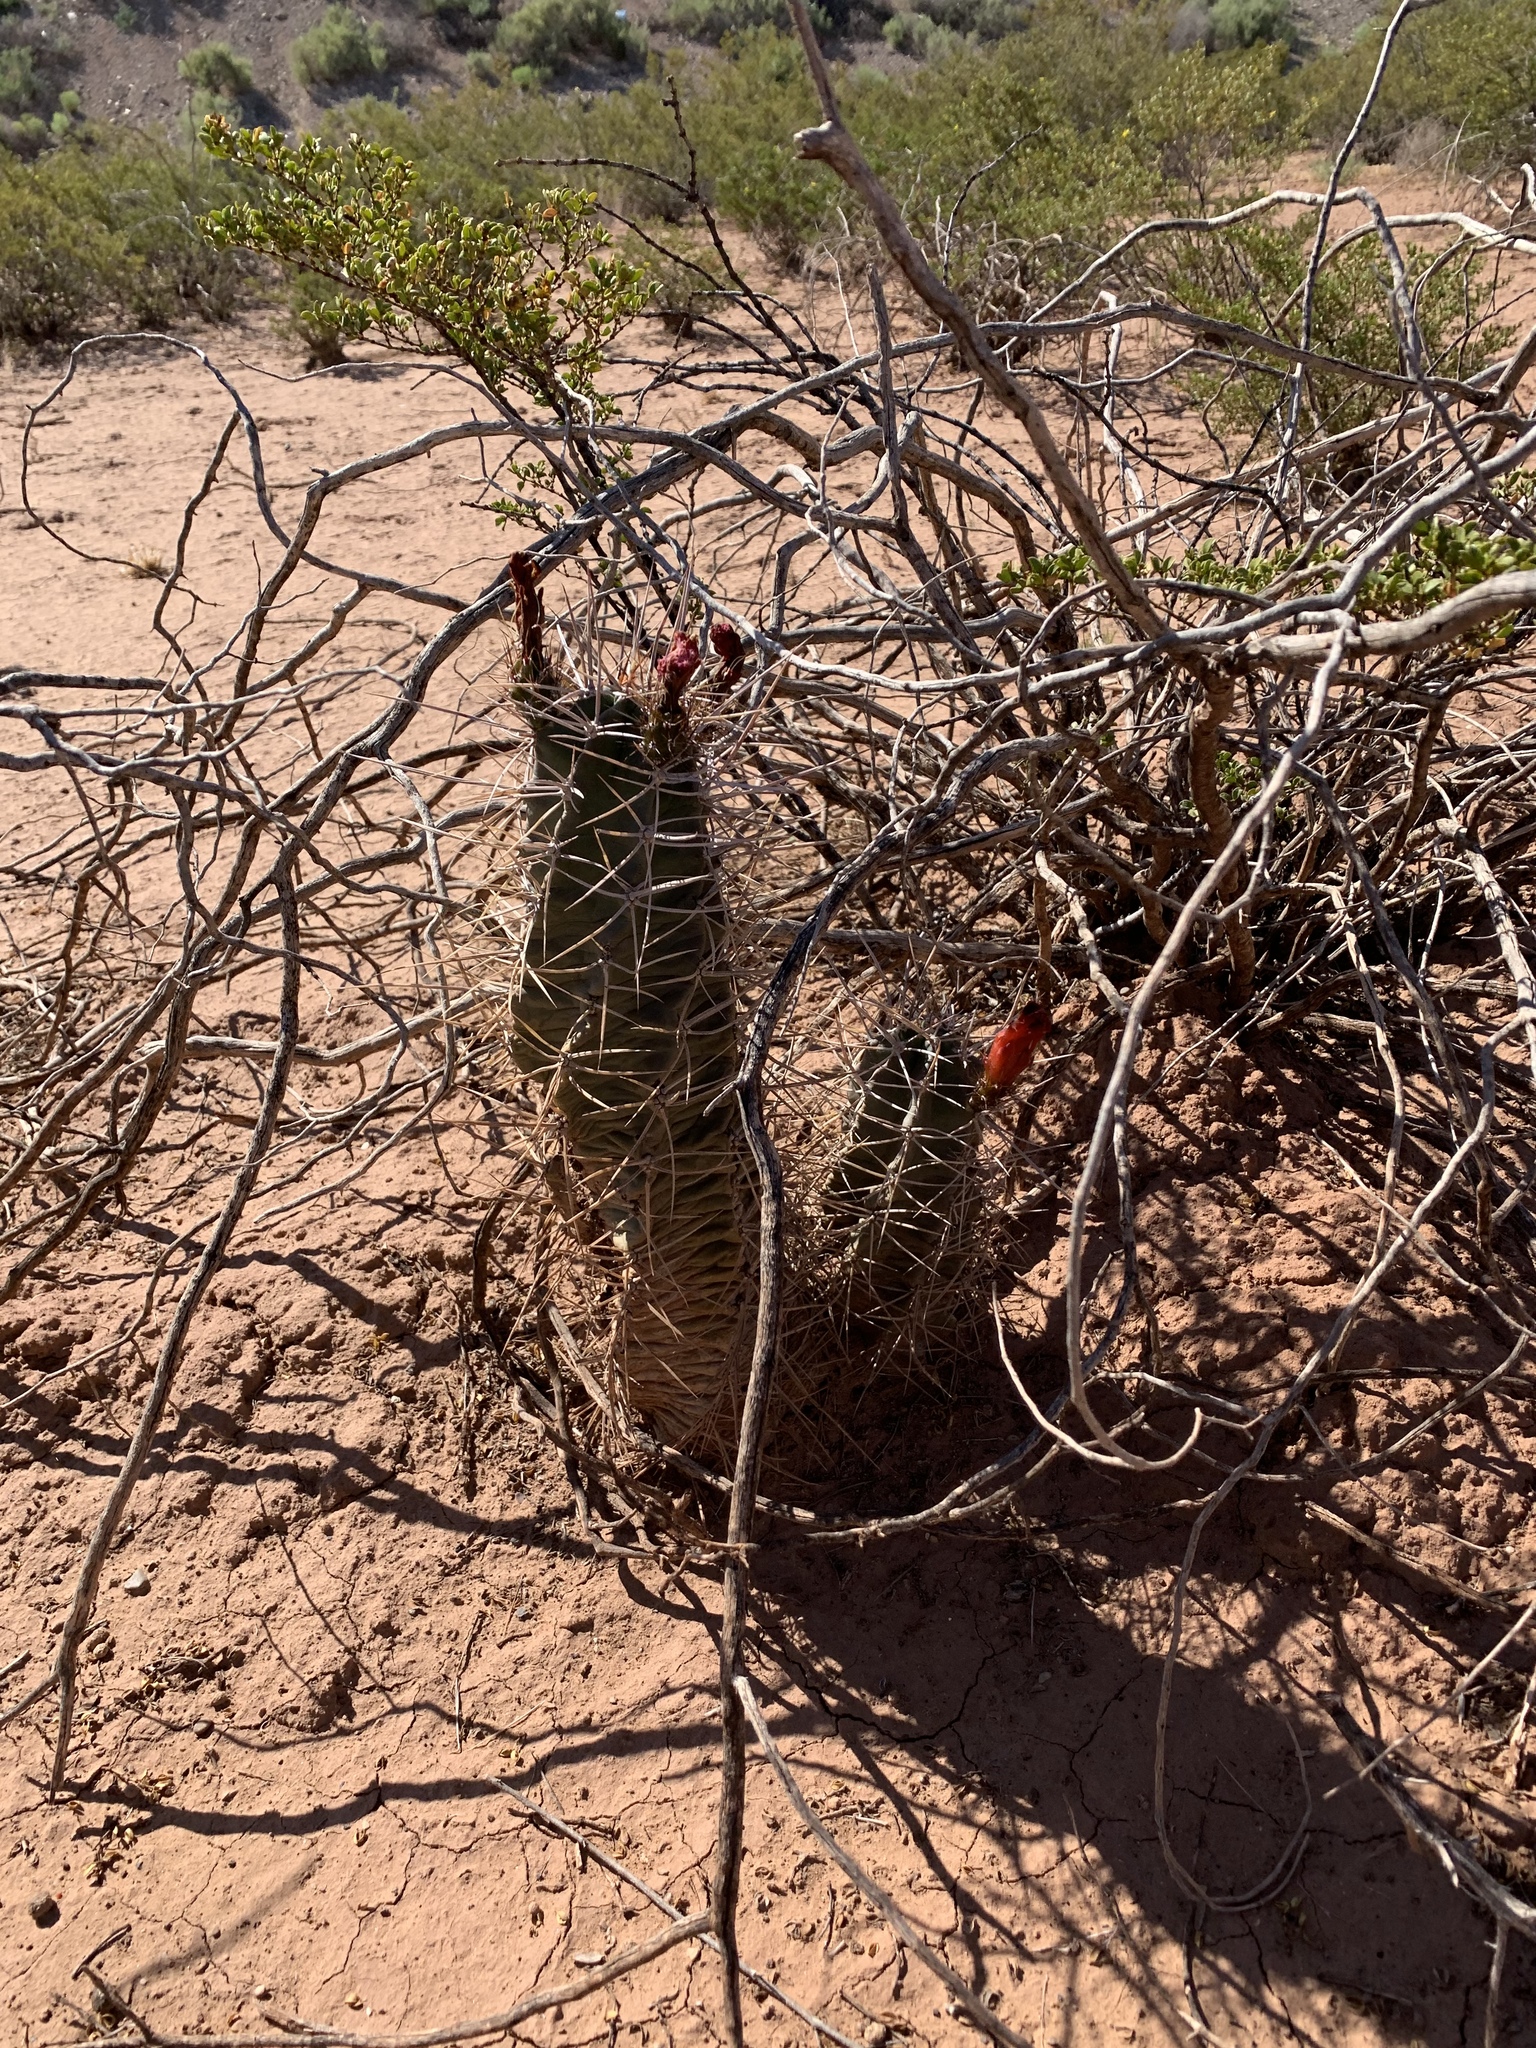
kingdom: Plantae
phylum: Tracheophyta
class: Magnoliopsida
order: Caryophyllales
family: Cactaceae
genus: Echinocereus
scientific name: Echinocereus triglochidiatus
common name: Claretcup hedgehog
